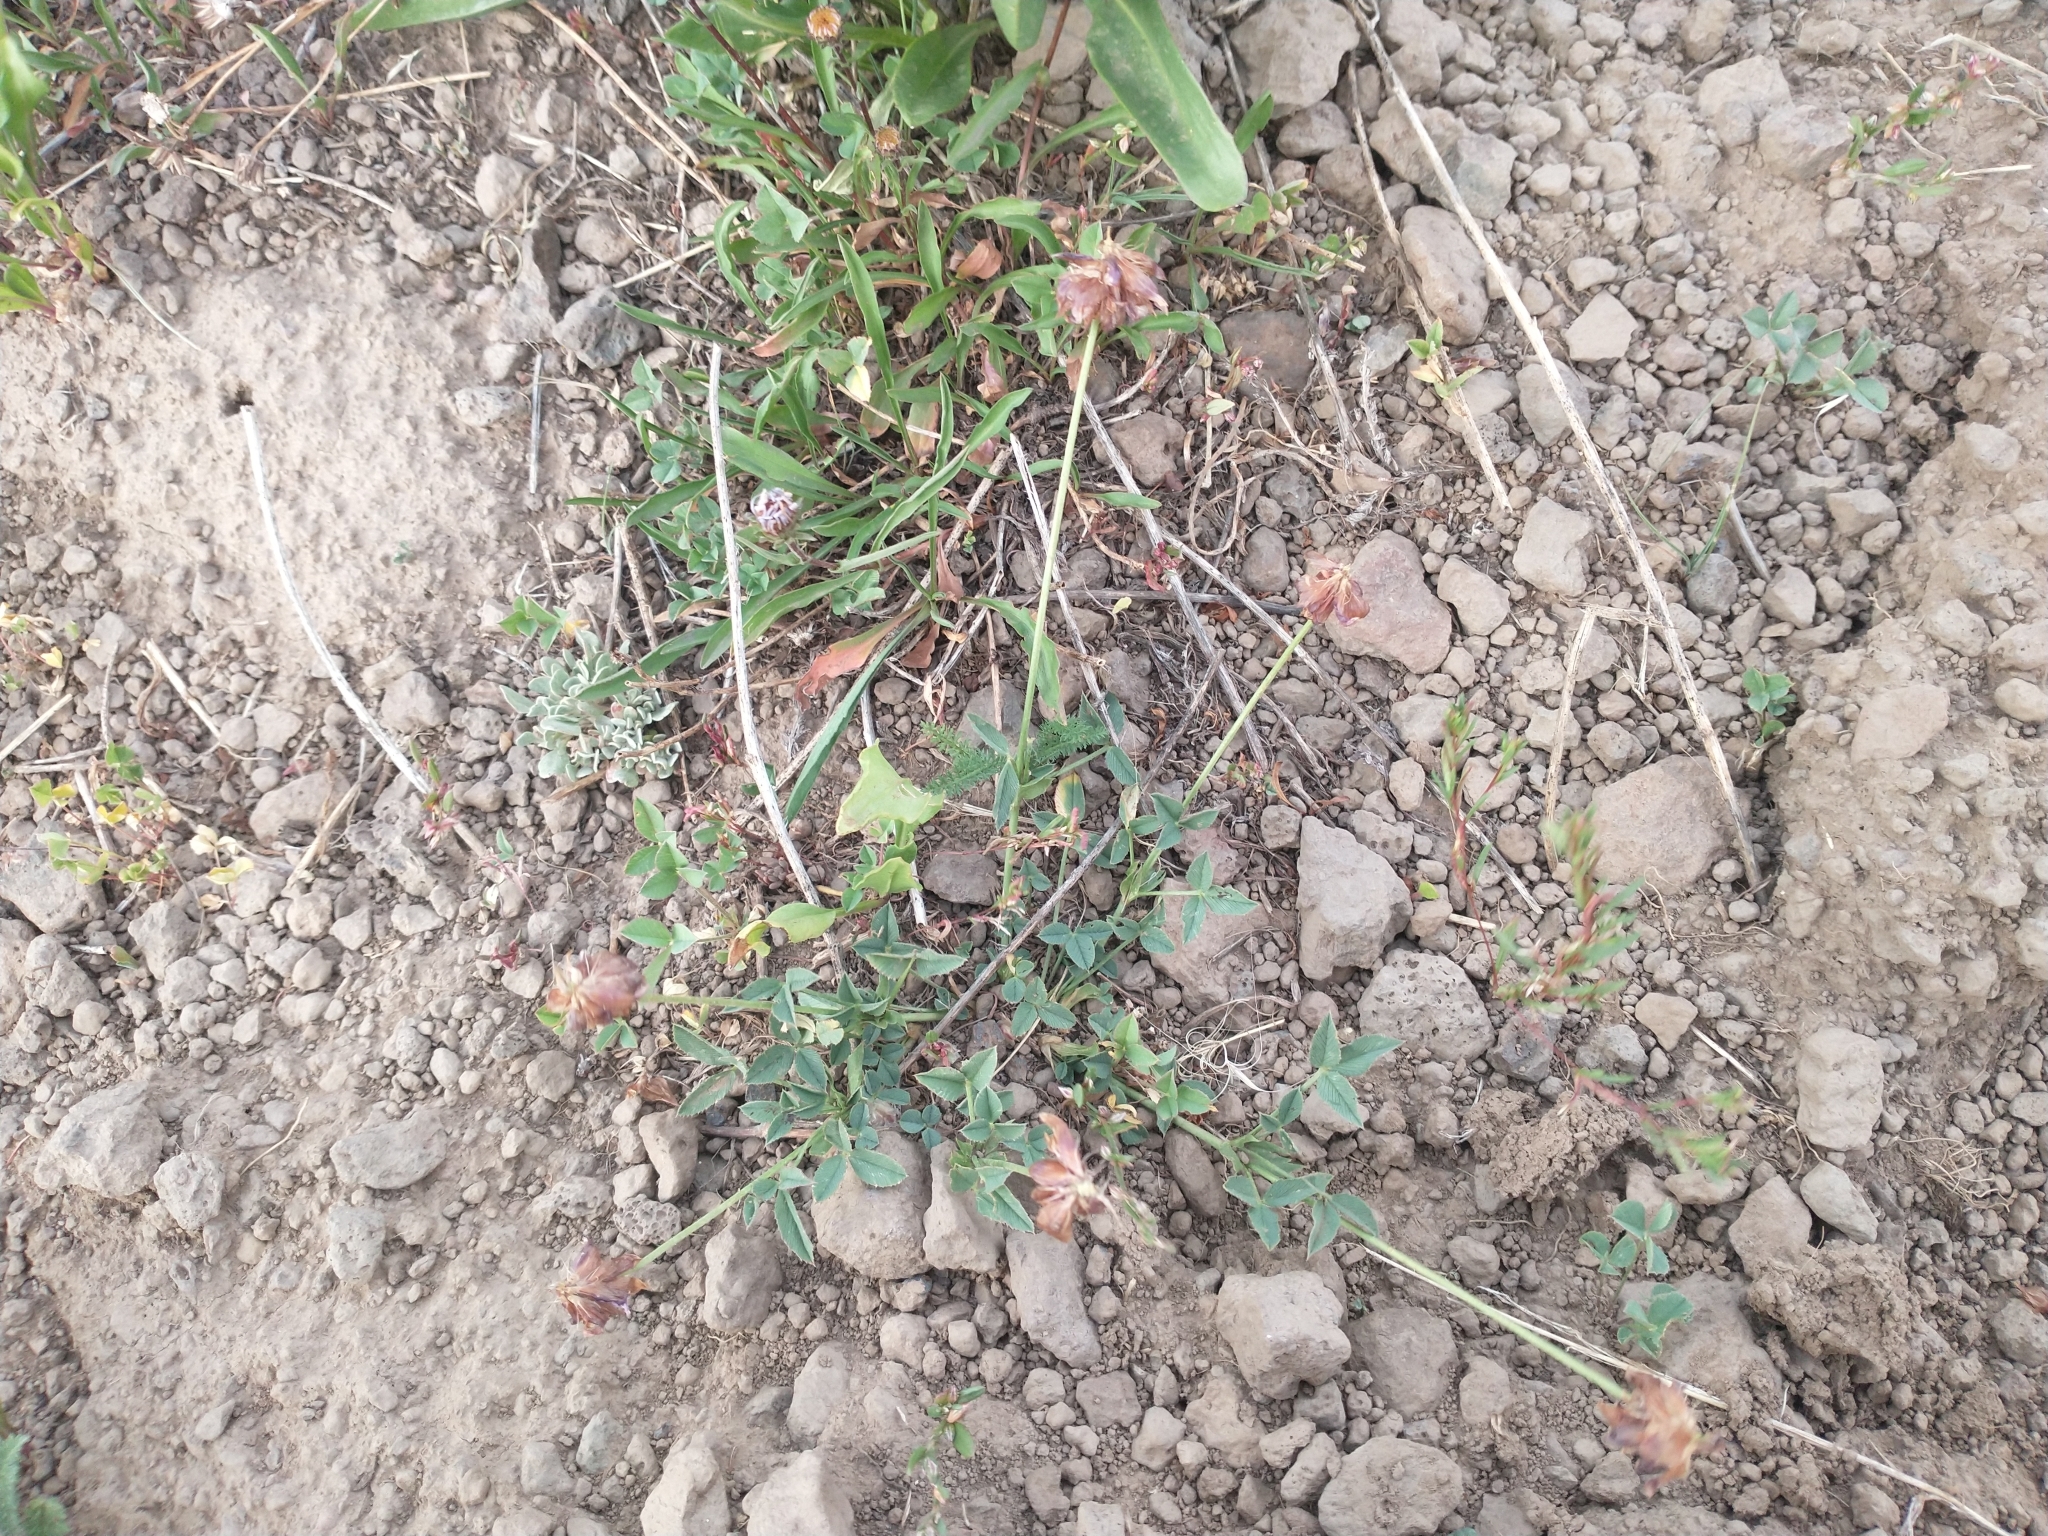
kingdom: Plantae
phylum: Tracheophyta
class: Magnoliopsida
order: Fabales
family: Fabaceae
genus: Trifolium
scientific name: Trifolium longipes
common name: Long-stalk clover
